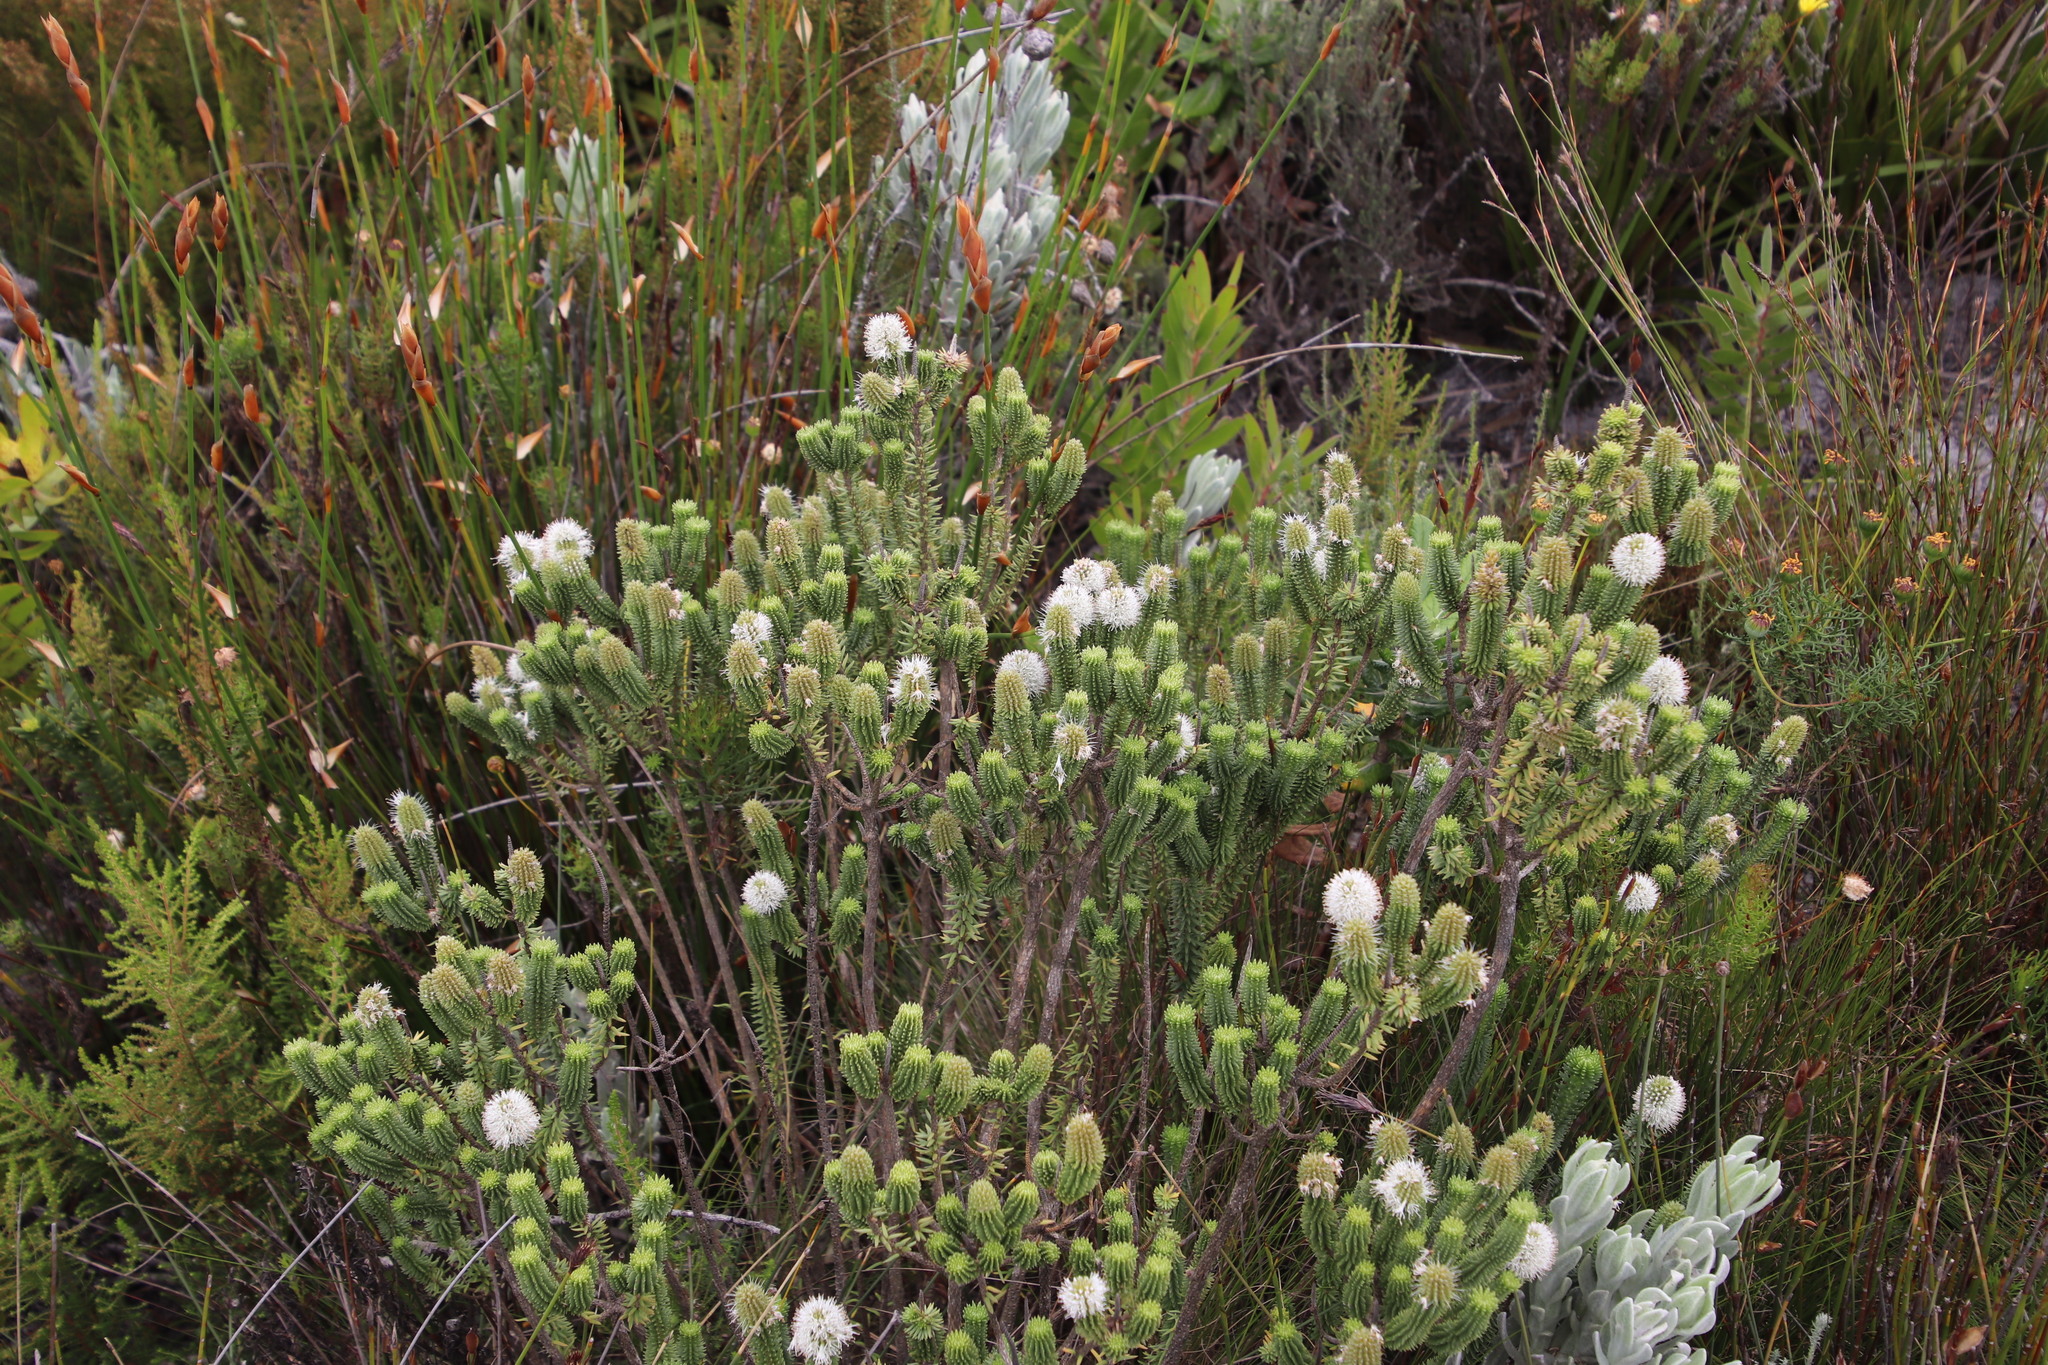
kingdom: Plantae
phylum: Tracheophyta
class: Magnoliopsida
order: Lamiales
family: Stilbaceae
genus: Stilbe
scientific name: Stilbe vestita
